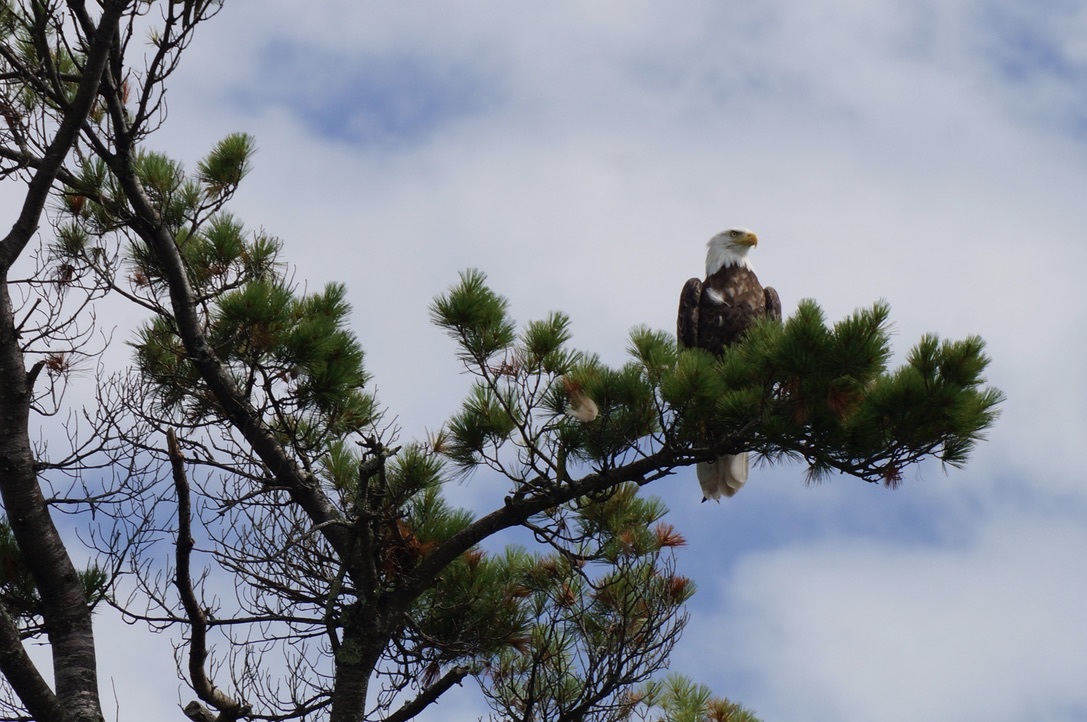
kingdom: Animalia
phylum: Chordata
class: Aves
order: Accipitriformes
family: Accipitridae
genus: Haliaeetus
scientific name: Haliaeetus leucocephalus
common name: Bald eagle
